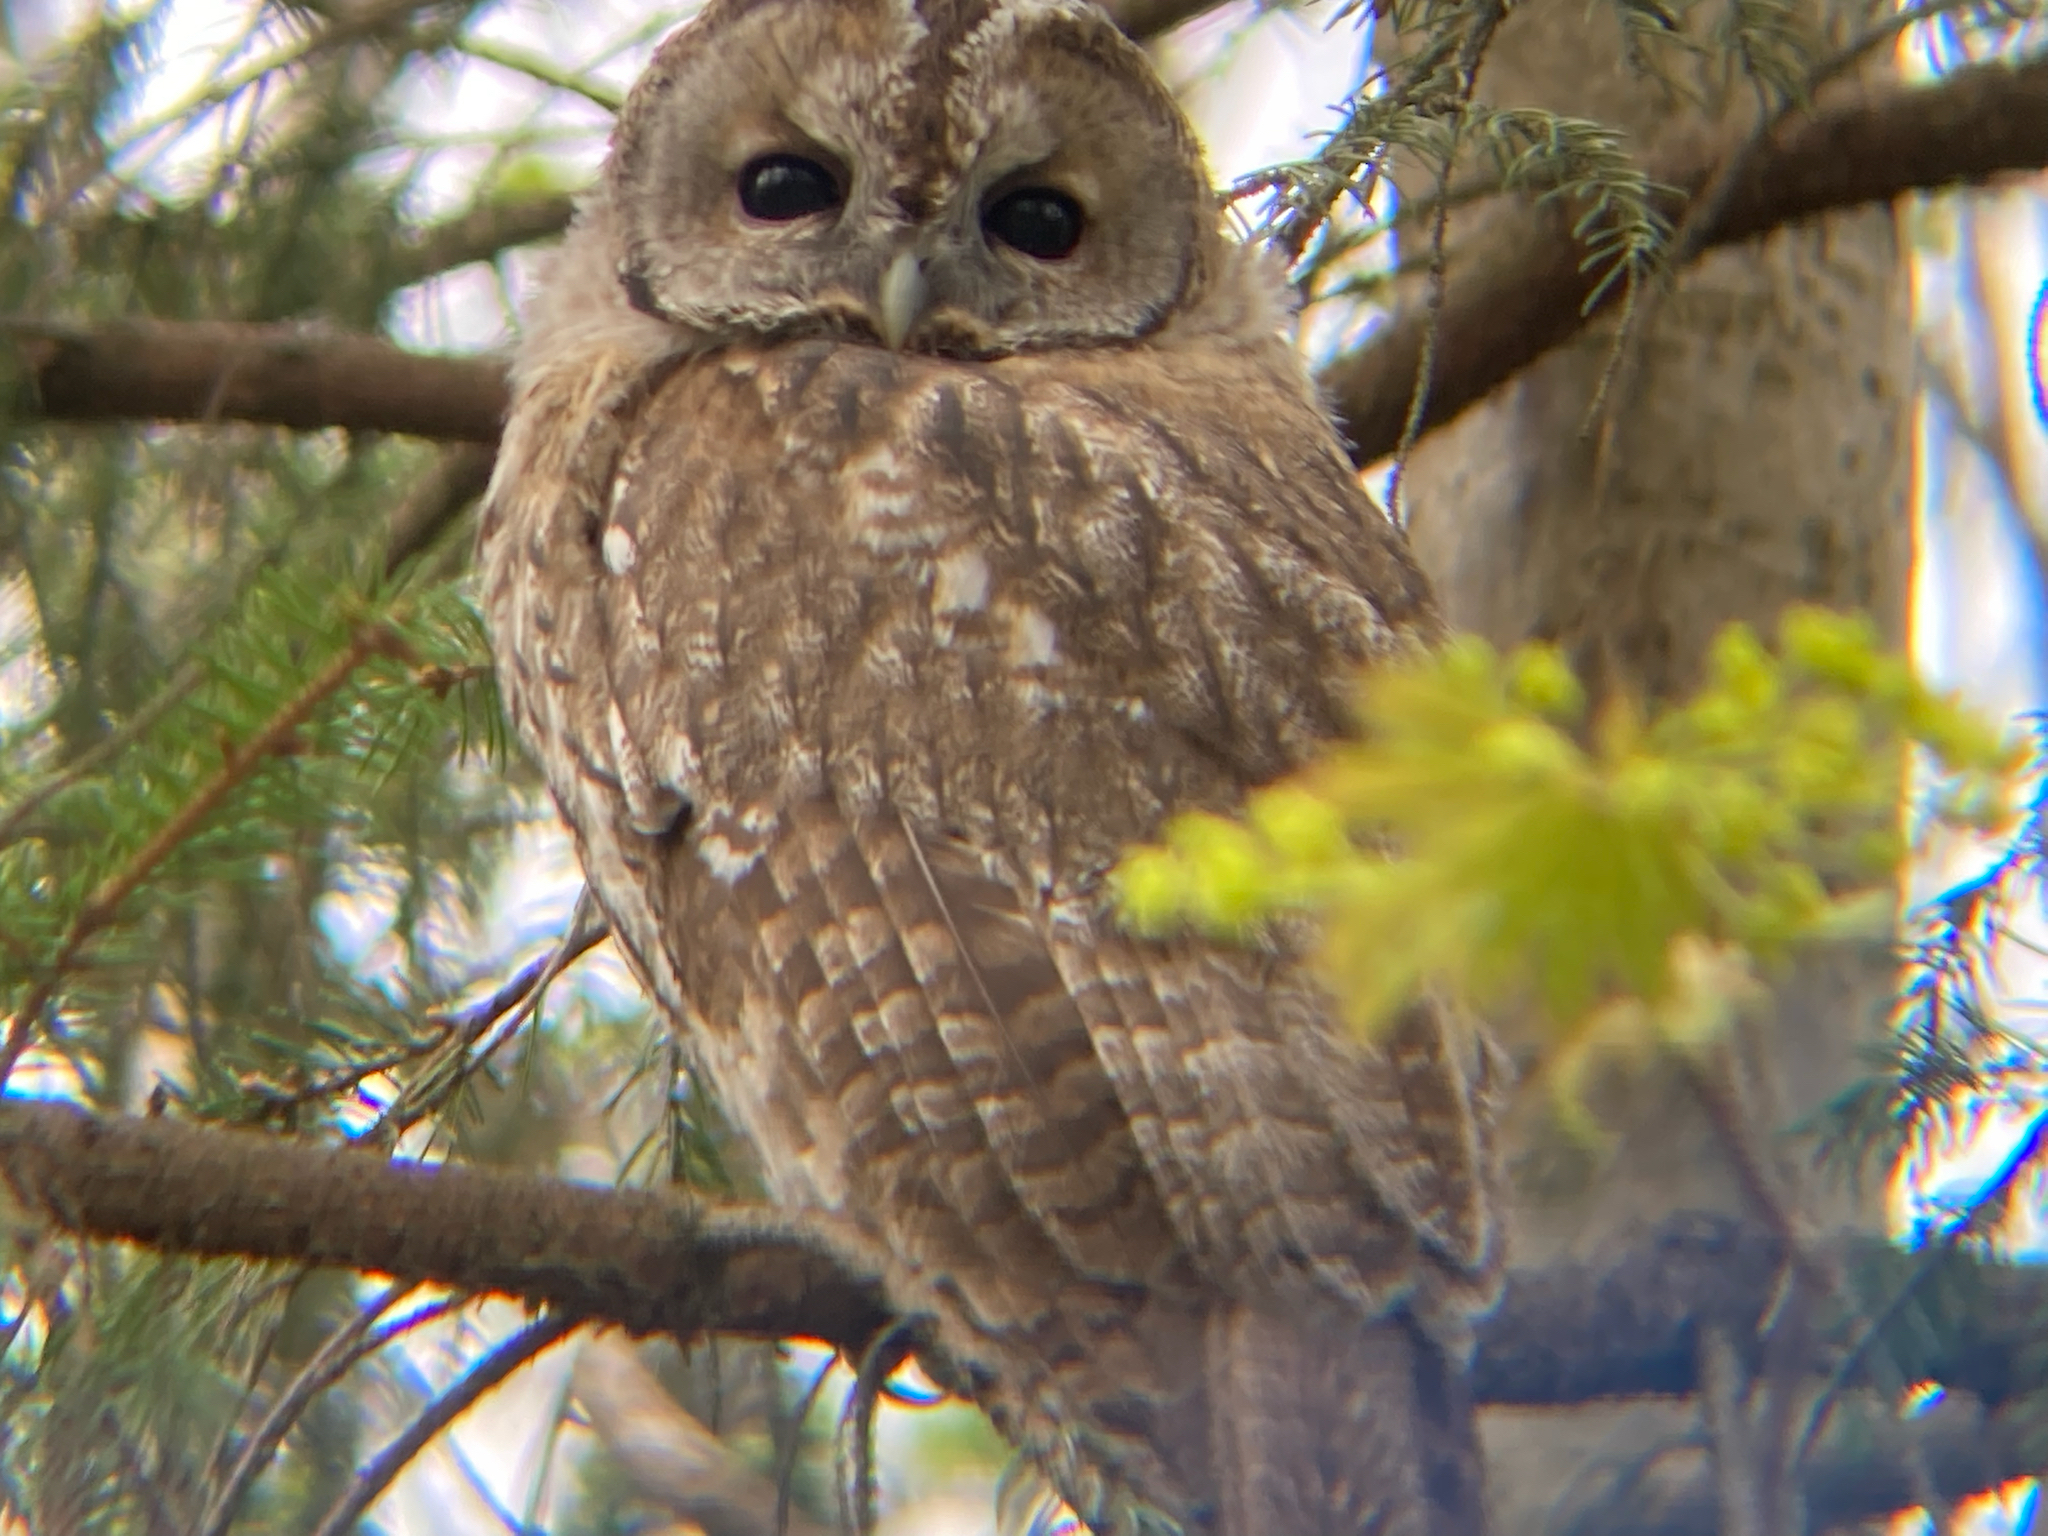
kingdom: Animalia
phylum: Chordata
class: Aves
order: Strigiformes
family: Strigidae
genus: Strix
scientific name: Strix aluco
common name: Tawny owl
